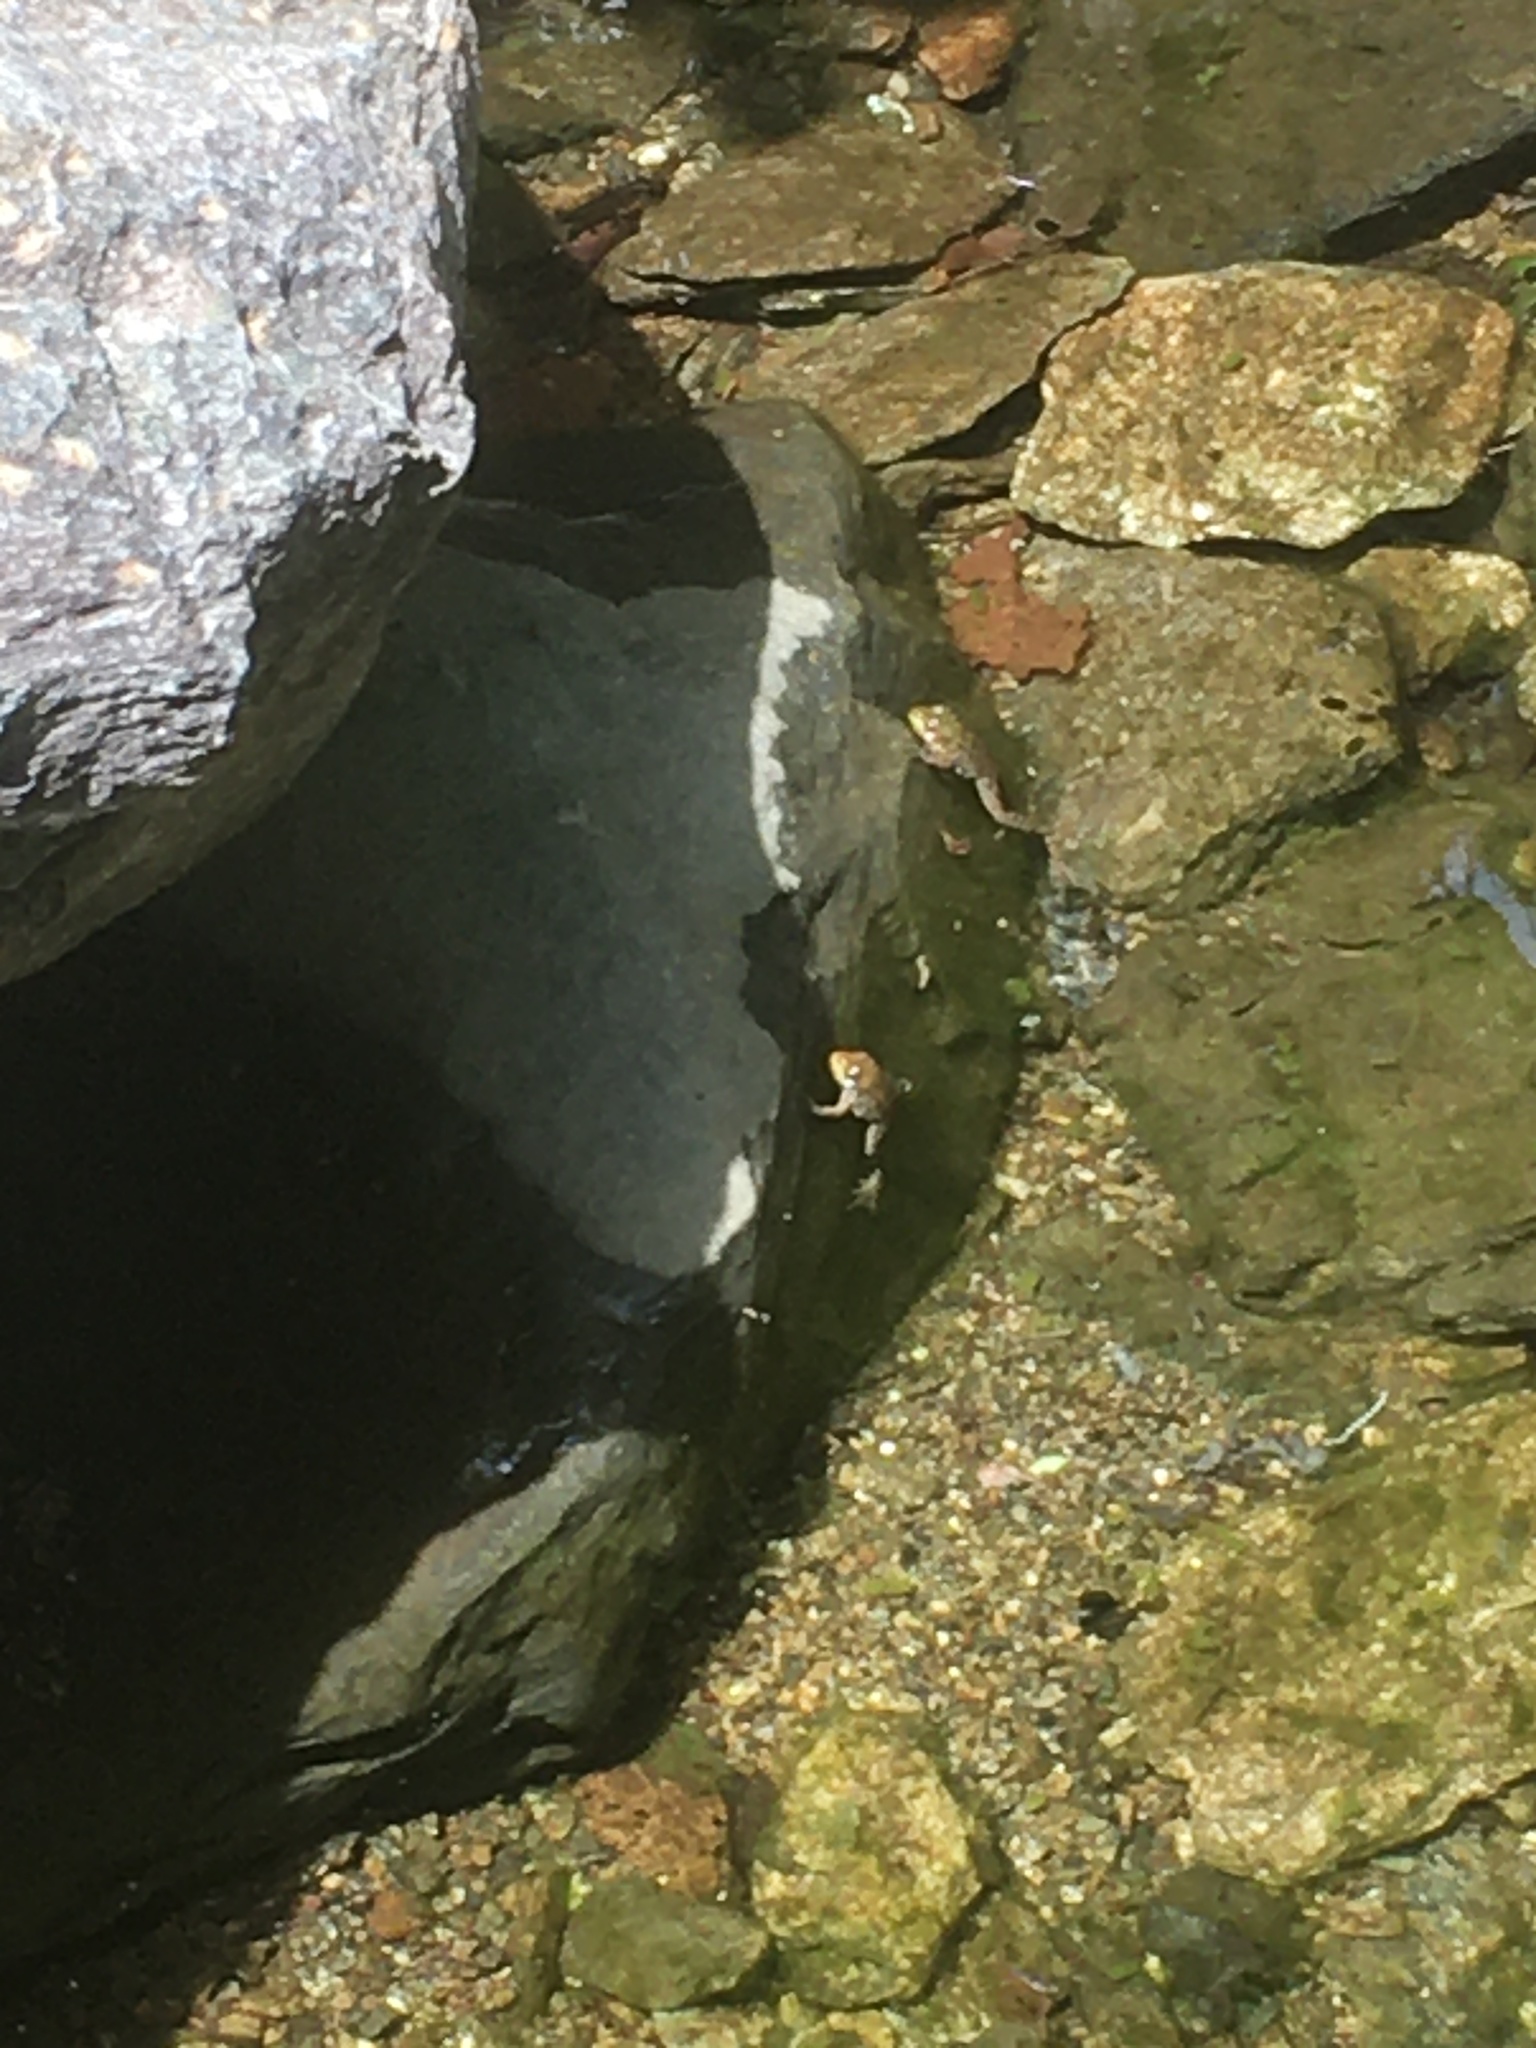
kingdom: Animalia
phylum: Chordata
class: Amphibia
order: Anura
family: Ranidae
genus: Lithobates
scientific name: Lithobates clamitans
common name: Green frog
